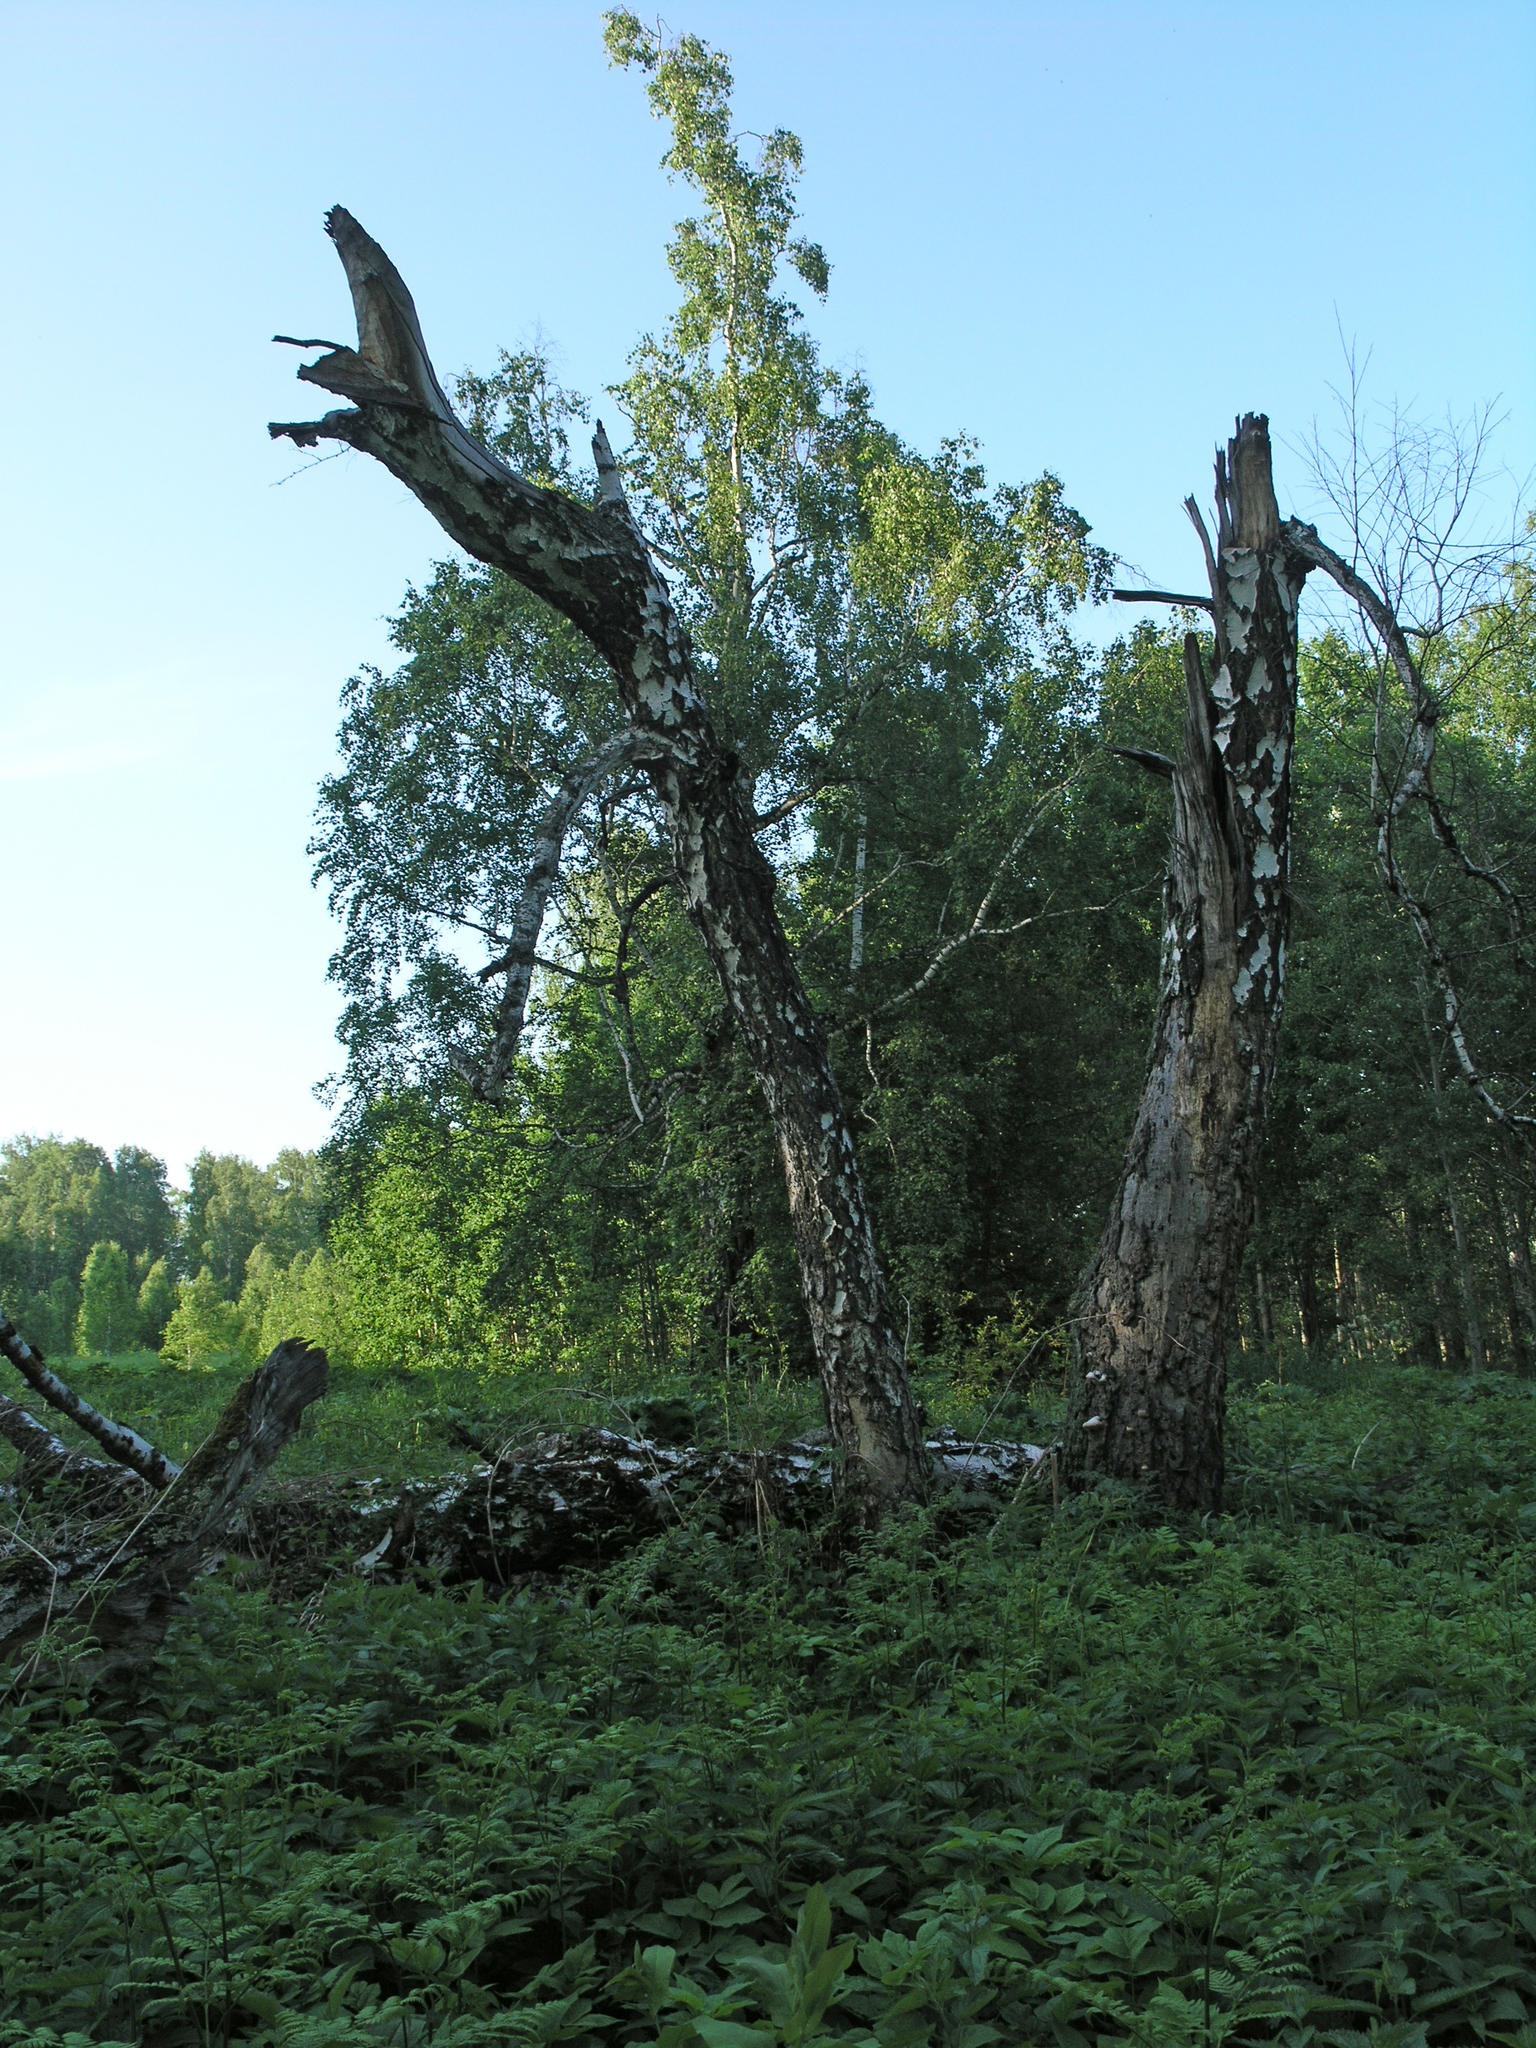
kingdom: Plantae
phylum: Tracheophyta
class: Magnoliopsida
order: Fagales
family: Betulaceae
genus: Betula
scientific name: Betula pendula
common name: Silver birch
